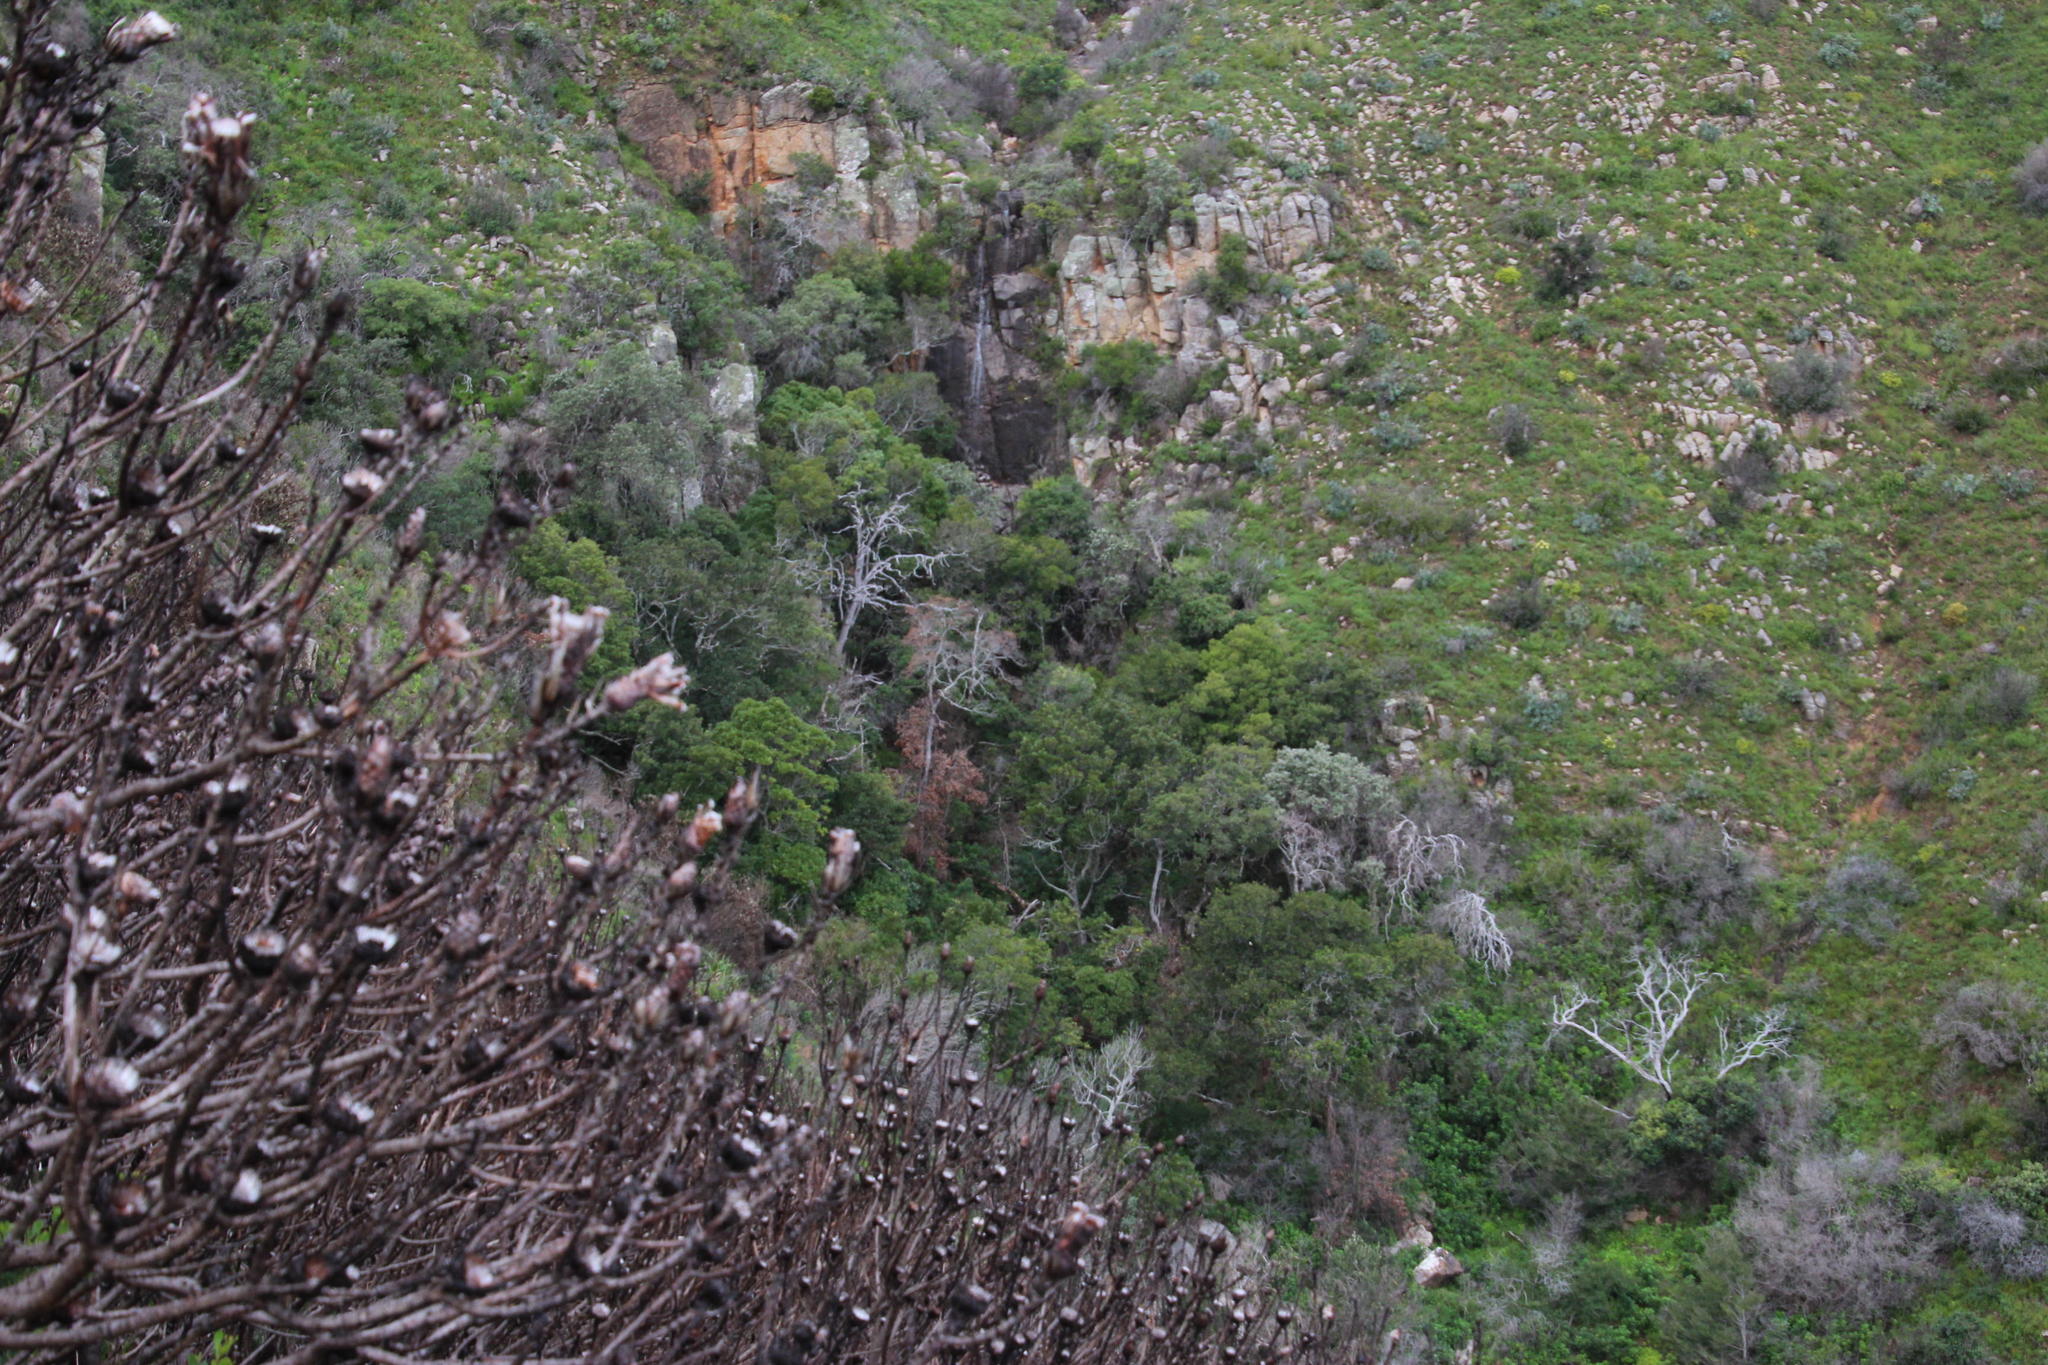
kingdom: Plantae
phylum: Tracheophyta
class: Magnoliopsida
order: Proteales
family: Proteaceae
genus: Protea
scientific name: Protea lepidocarpodendron
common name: Black-bearded protea
